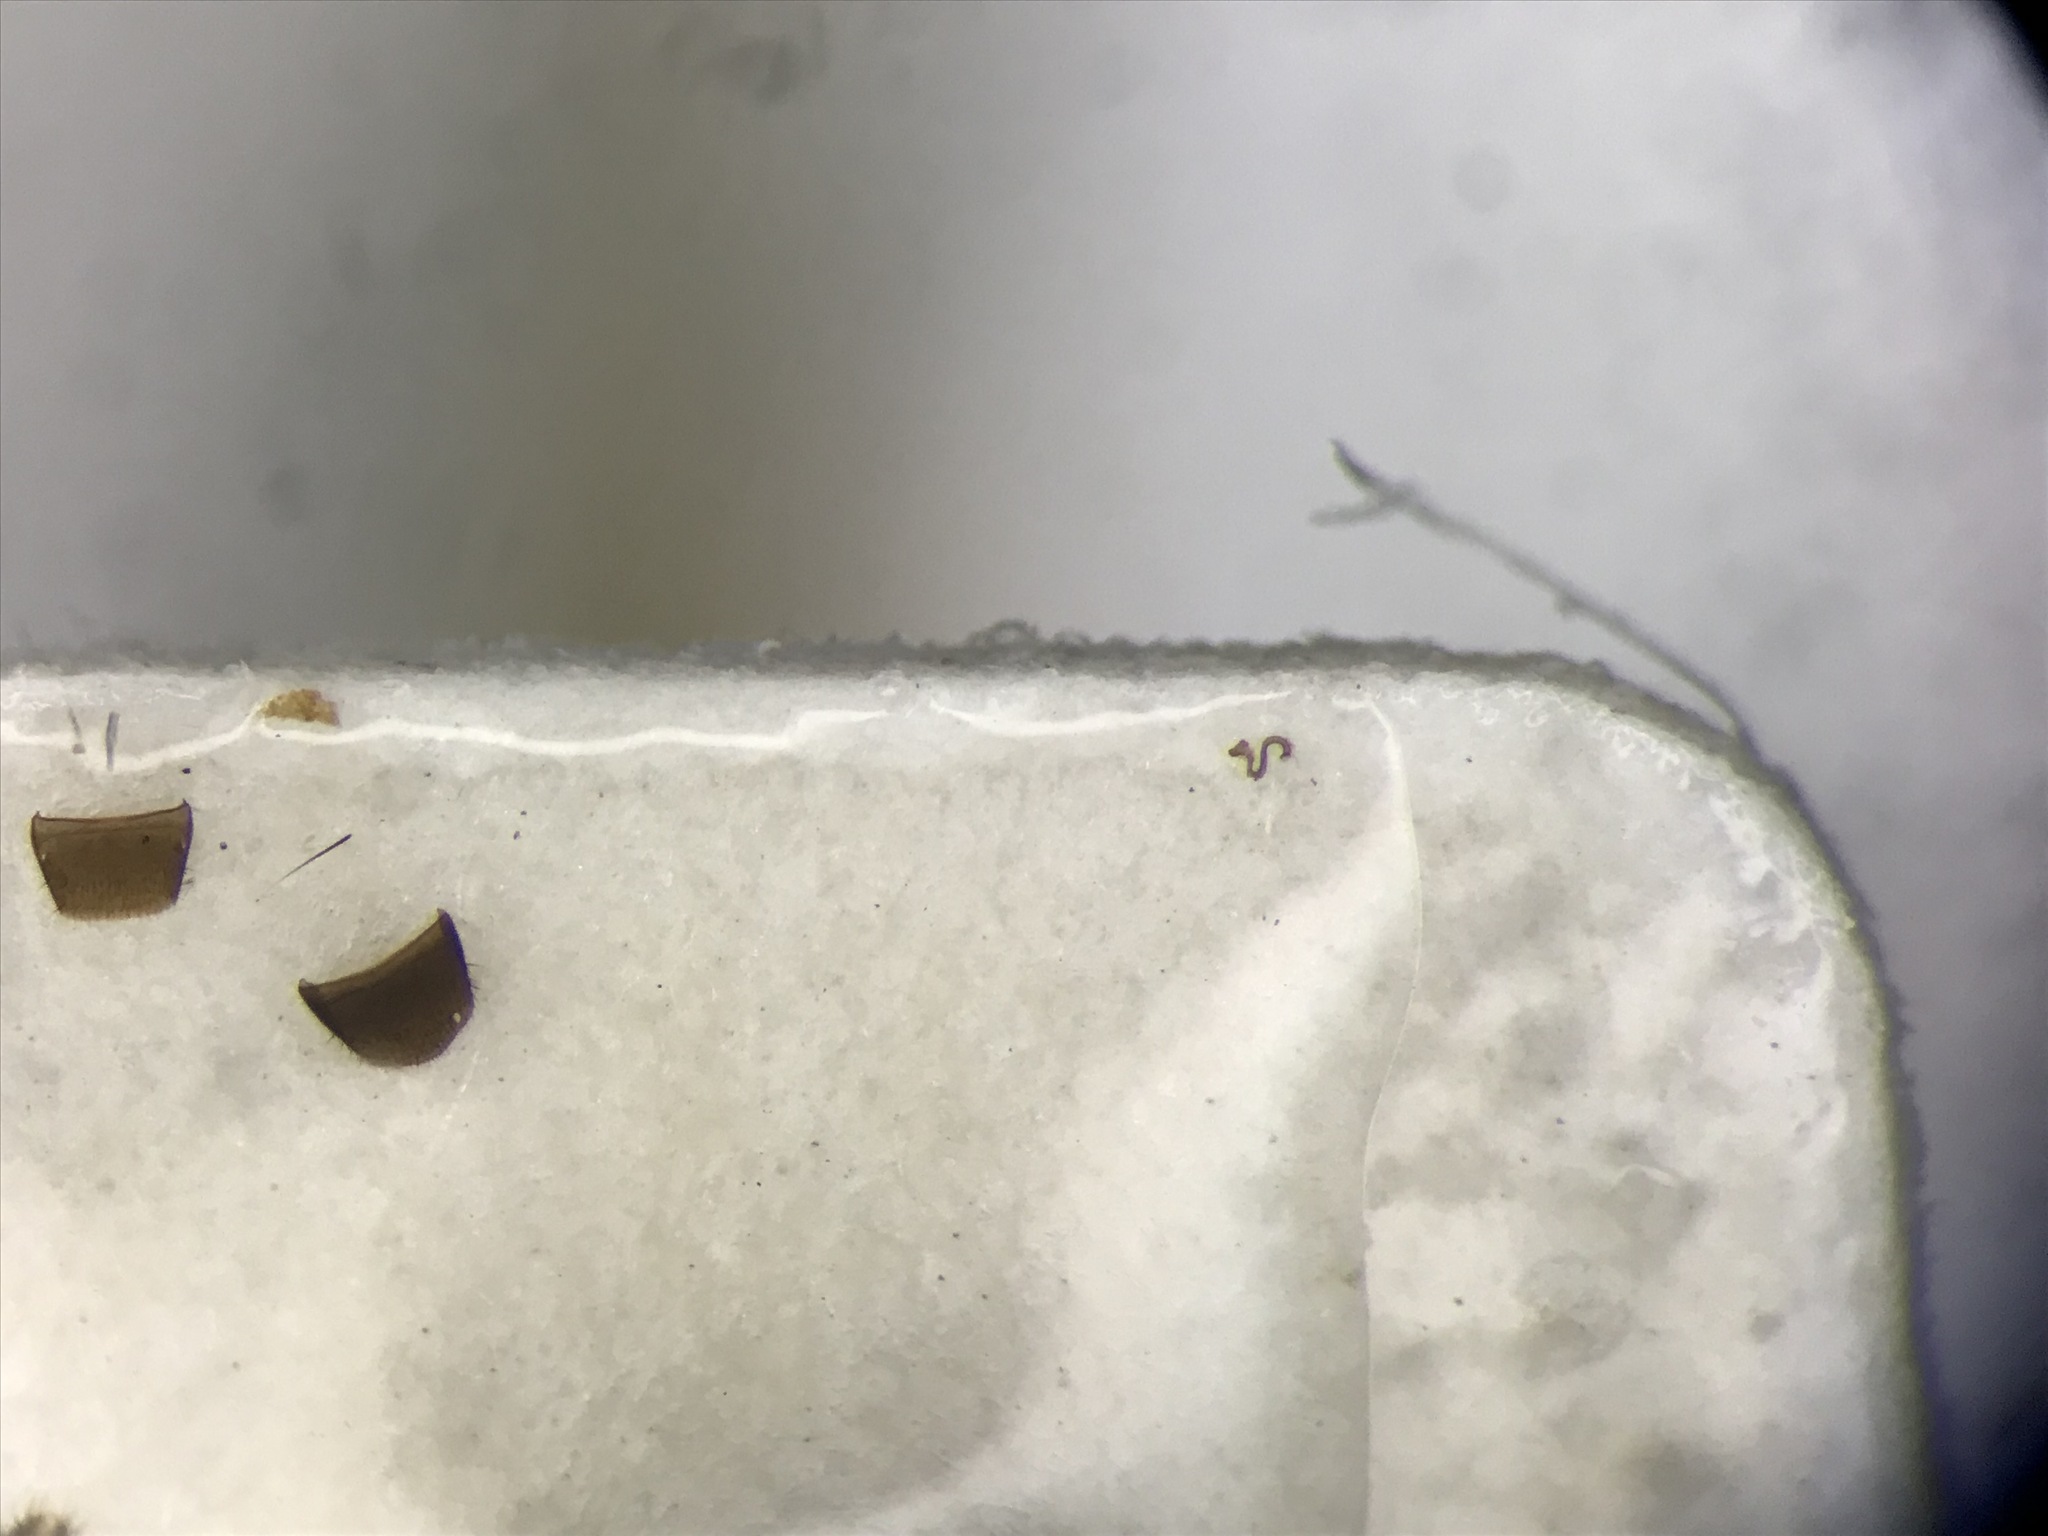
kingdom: Animalia
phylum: Arthropoda
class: Insecta
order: Coleoptera
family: Staphylinidae
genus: Placusa
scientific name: Placusa vaga
